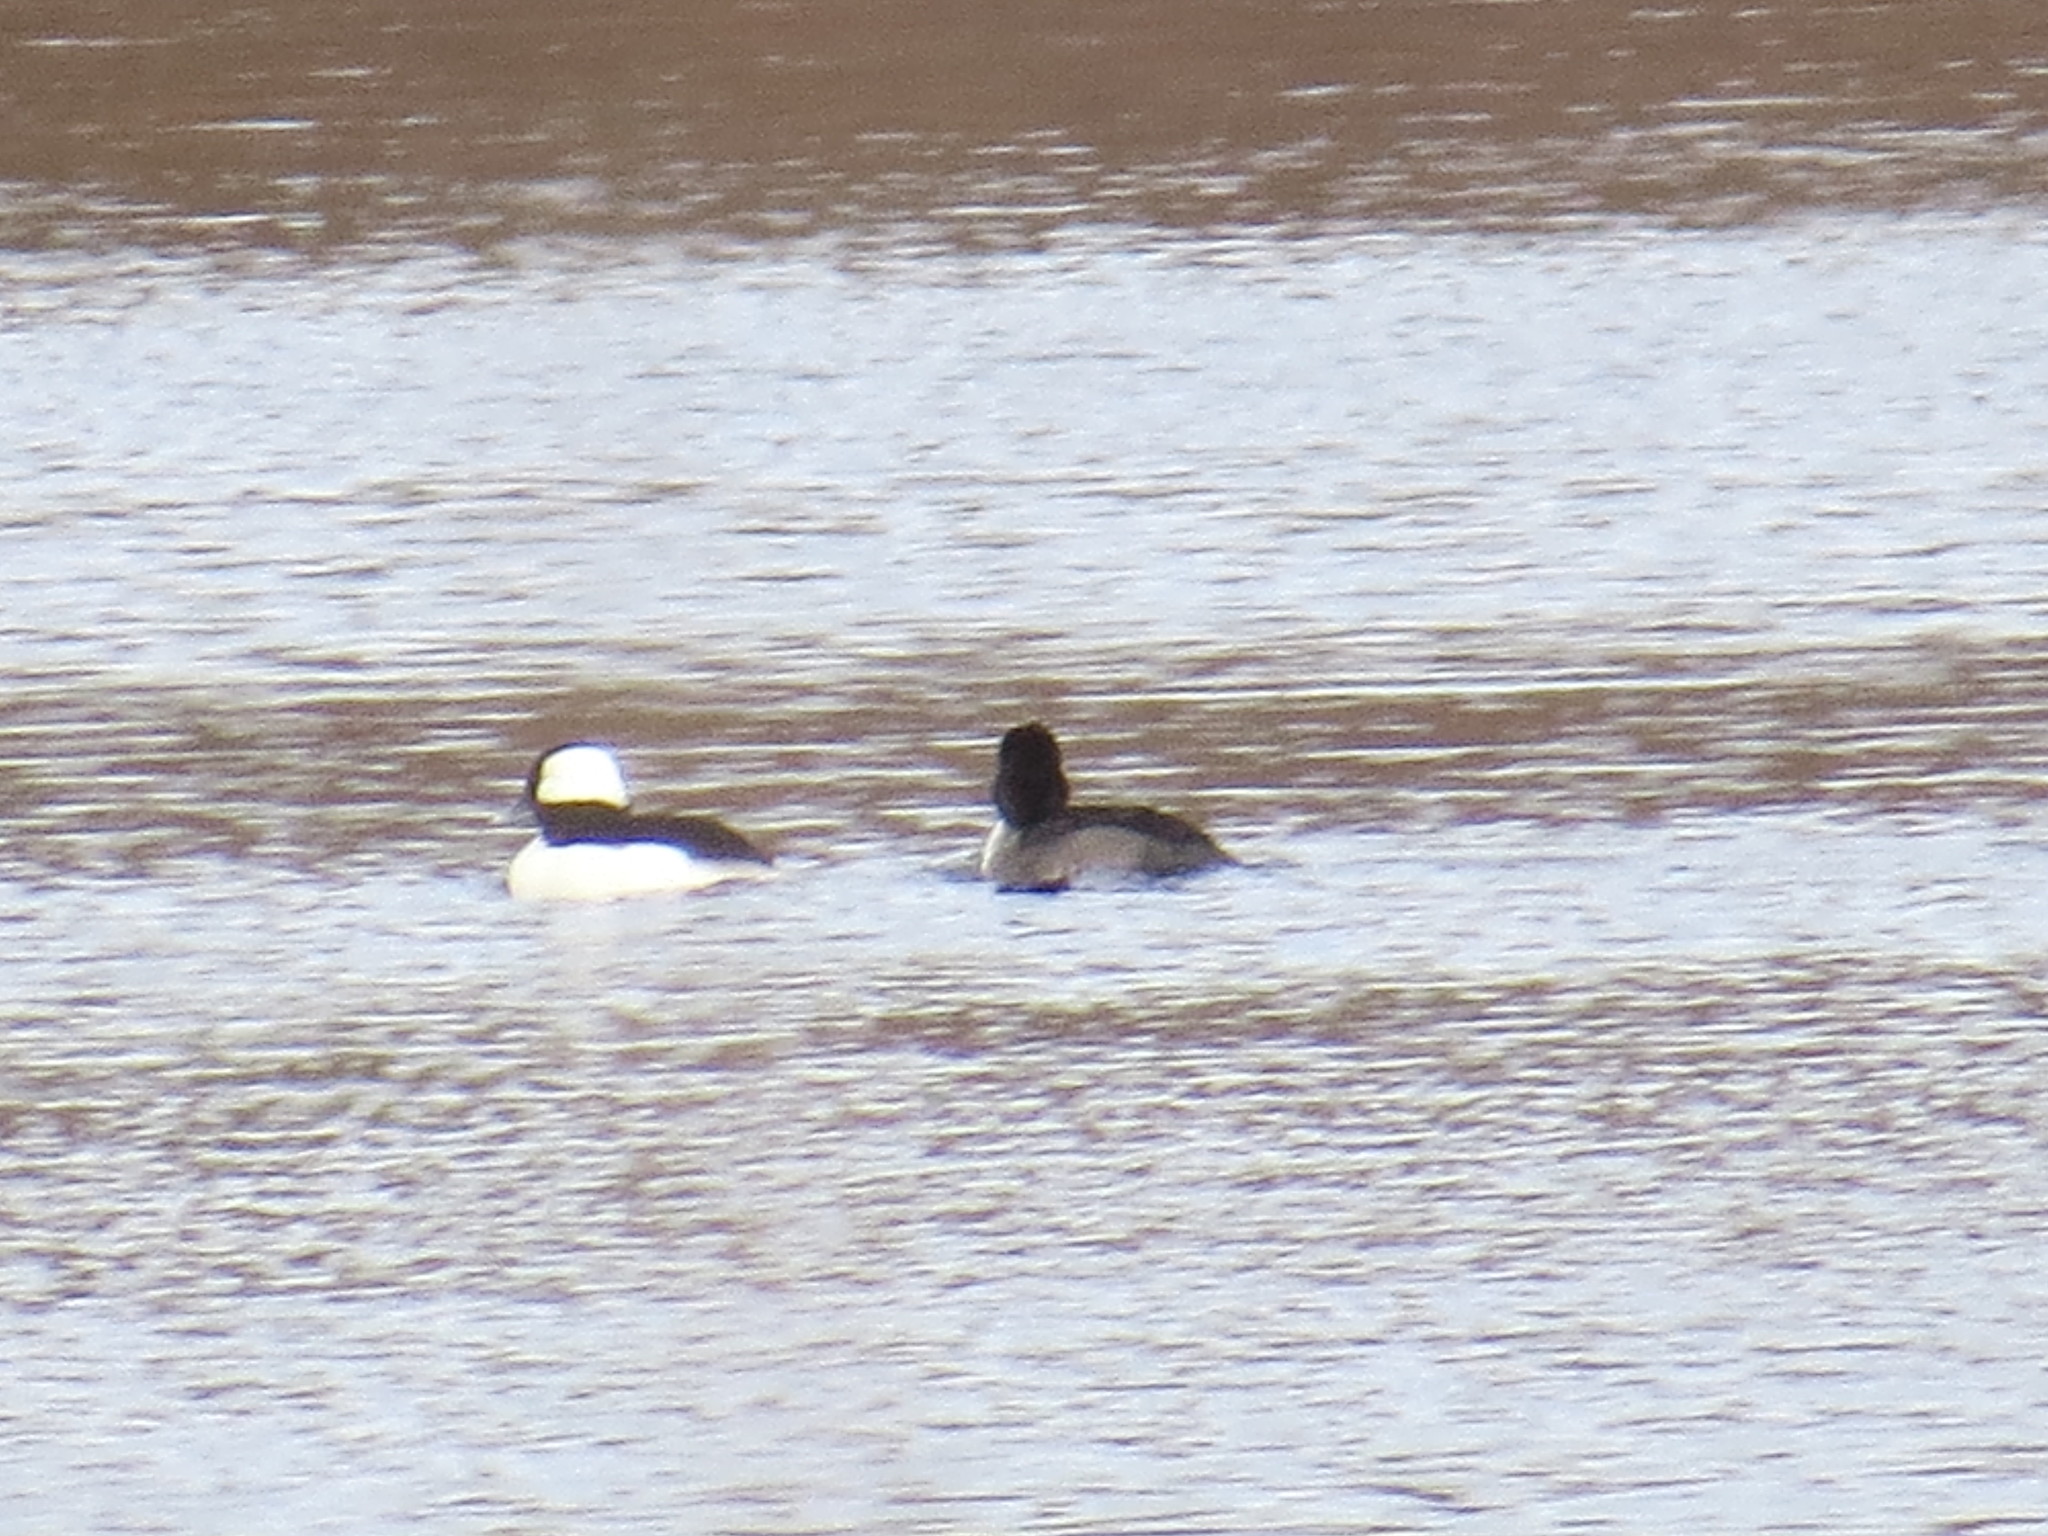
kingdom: Animalia
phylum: Chordata
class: Aves
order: Anseriformes
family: Anatidae
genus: Bucephala
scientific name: Bucephala albeola
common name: Bufflehead
